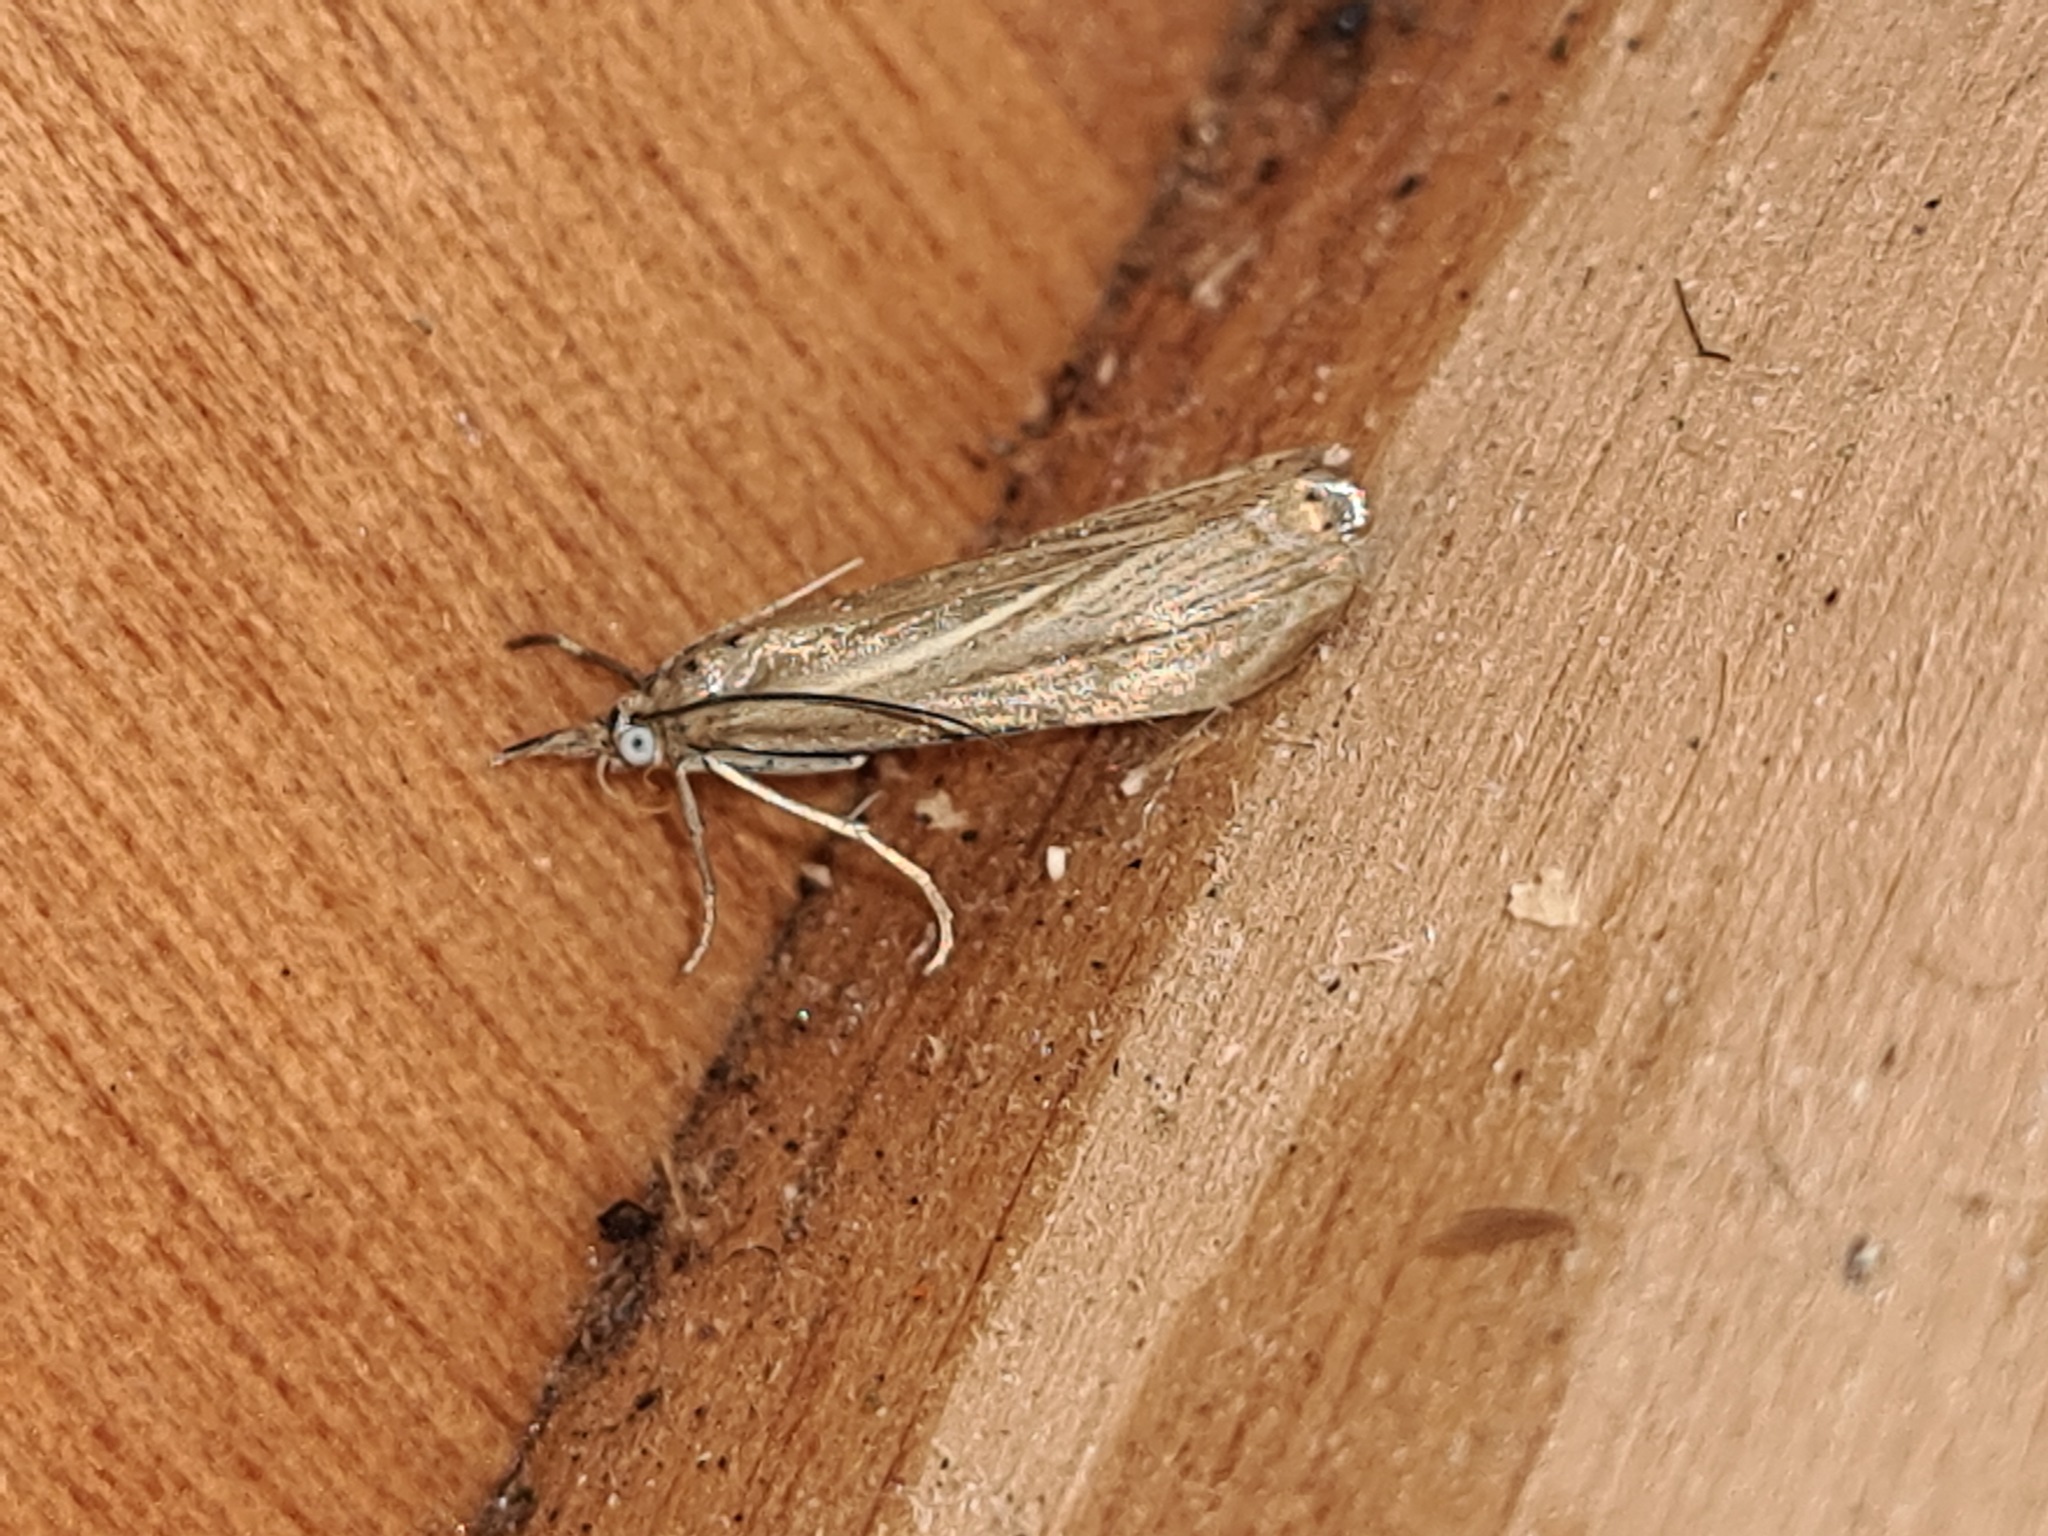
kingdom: Animalia
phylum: Arthropoda
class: Insecta
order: Lepidoptera
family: Crambidae
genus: Chrysoteuchia
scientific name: Chrysoteuchia culmella
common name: Garden grass-veneer
